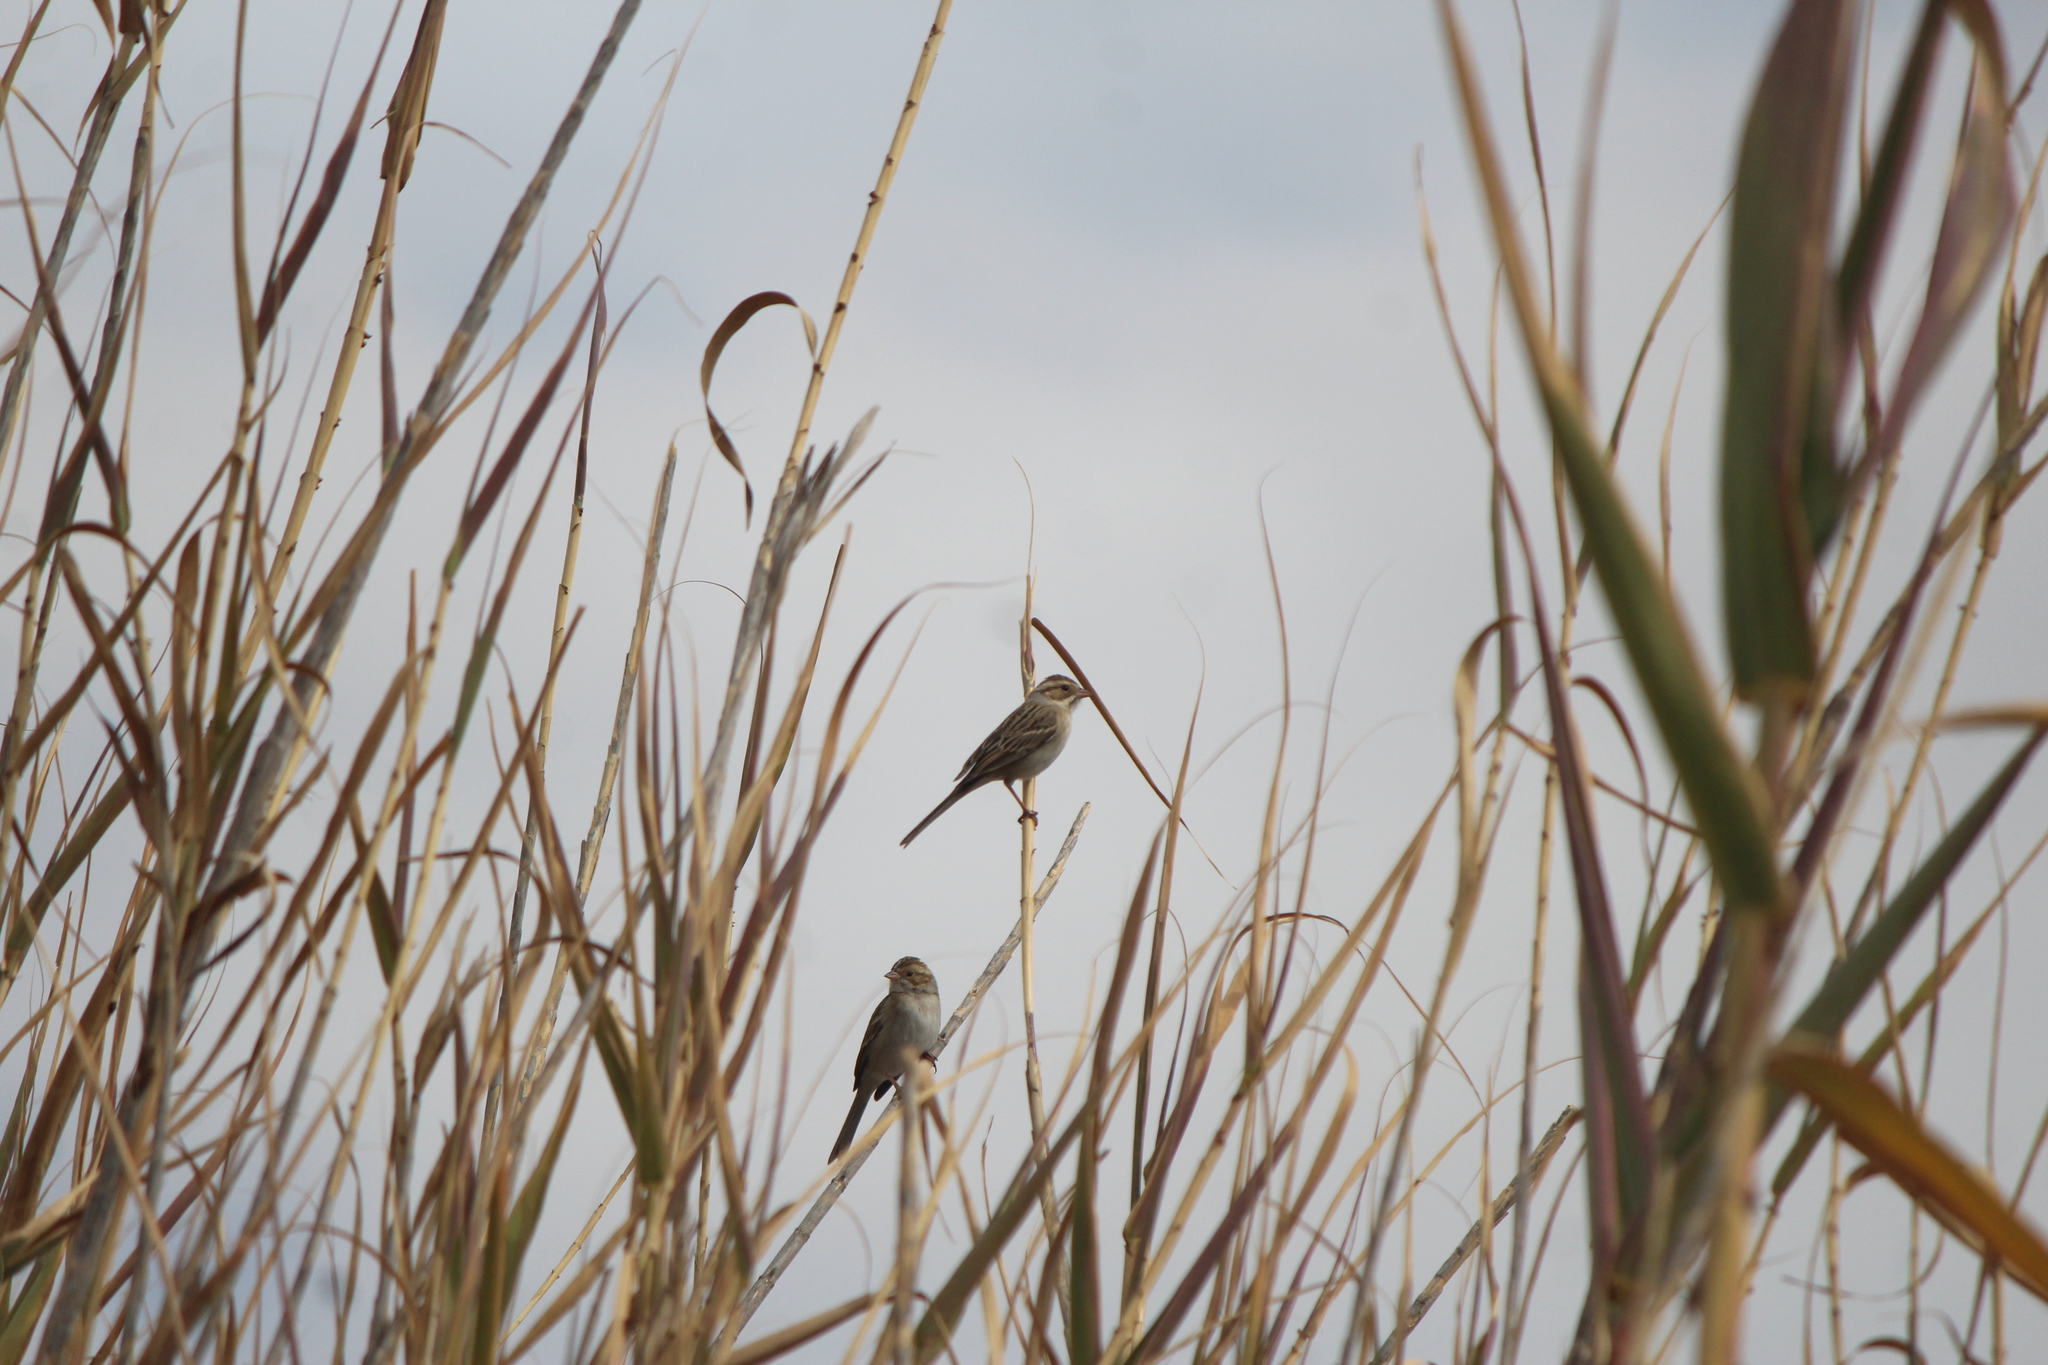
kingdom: Animalia
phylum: Chordata
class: Aves
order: Passeriformes
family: Passerellidae
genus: Spizella
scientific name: Spizella pallida
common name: Clay-colored sparrow
